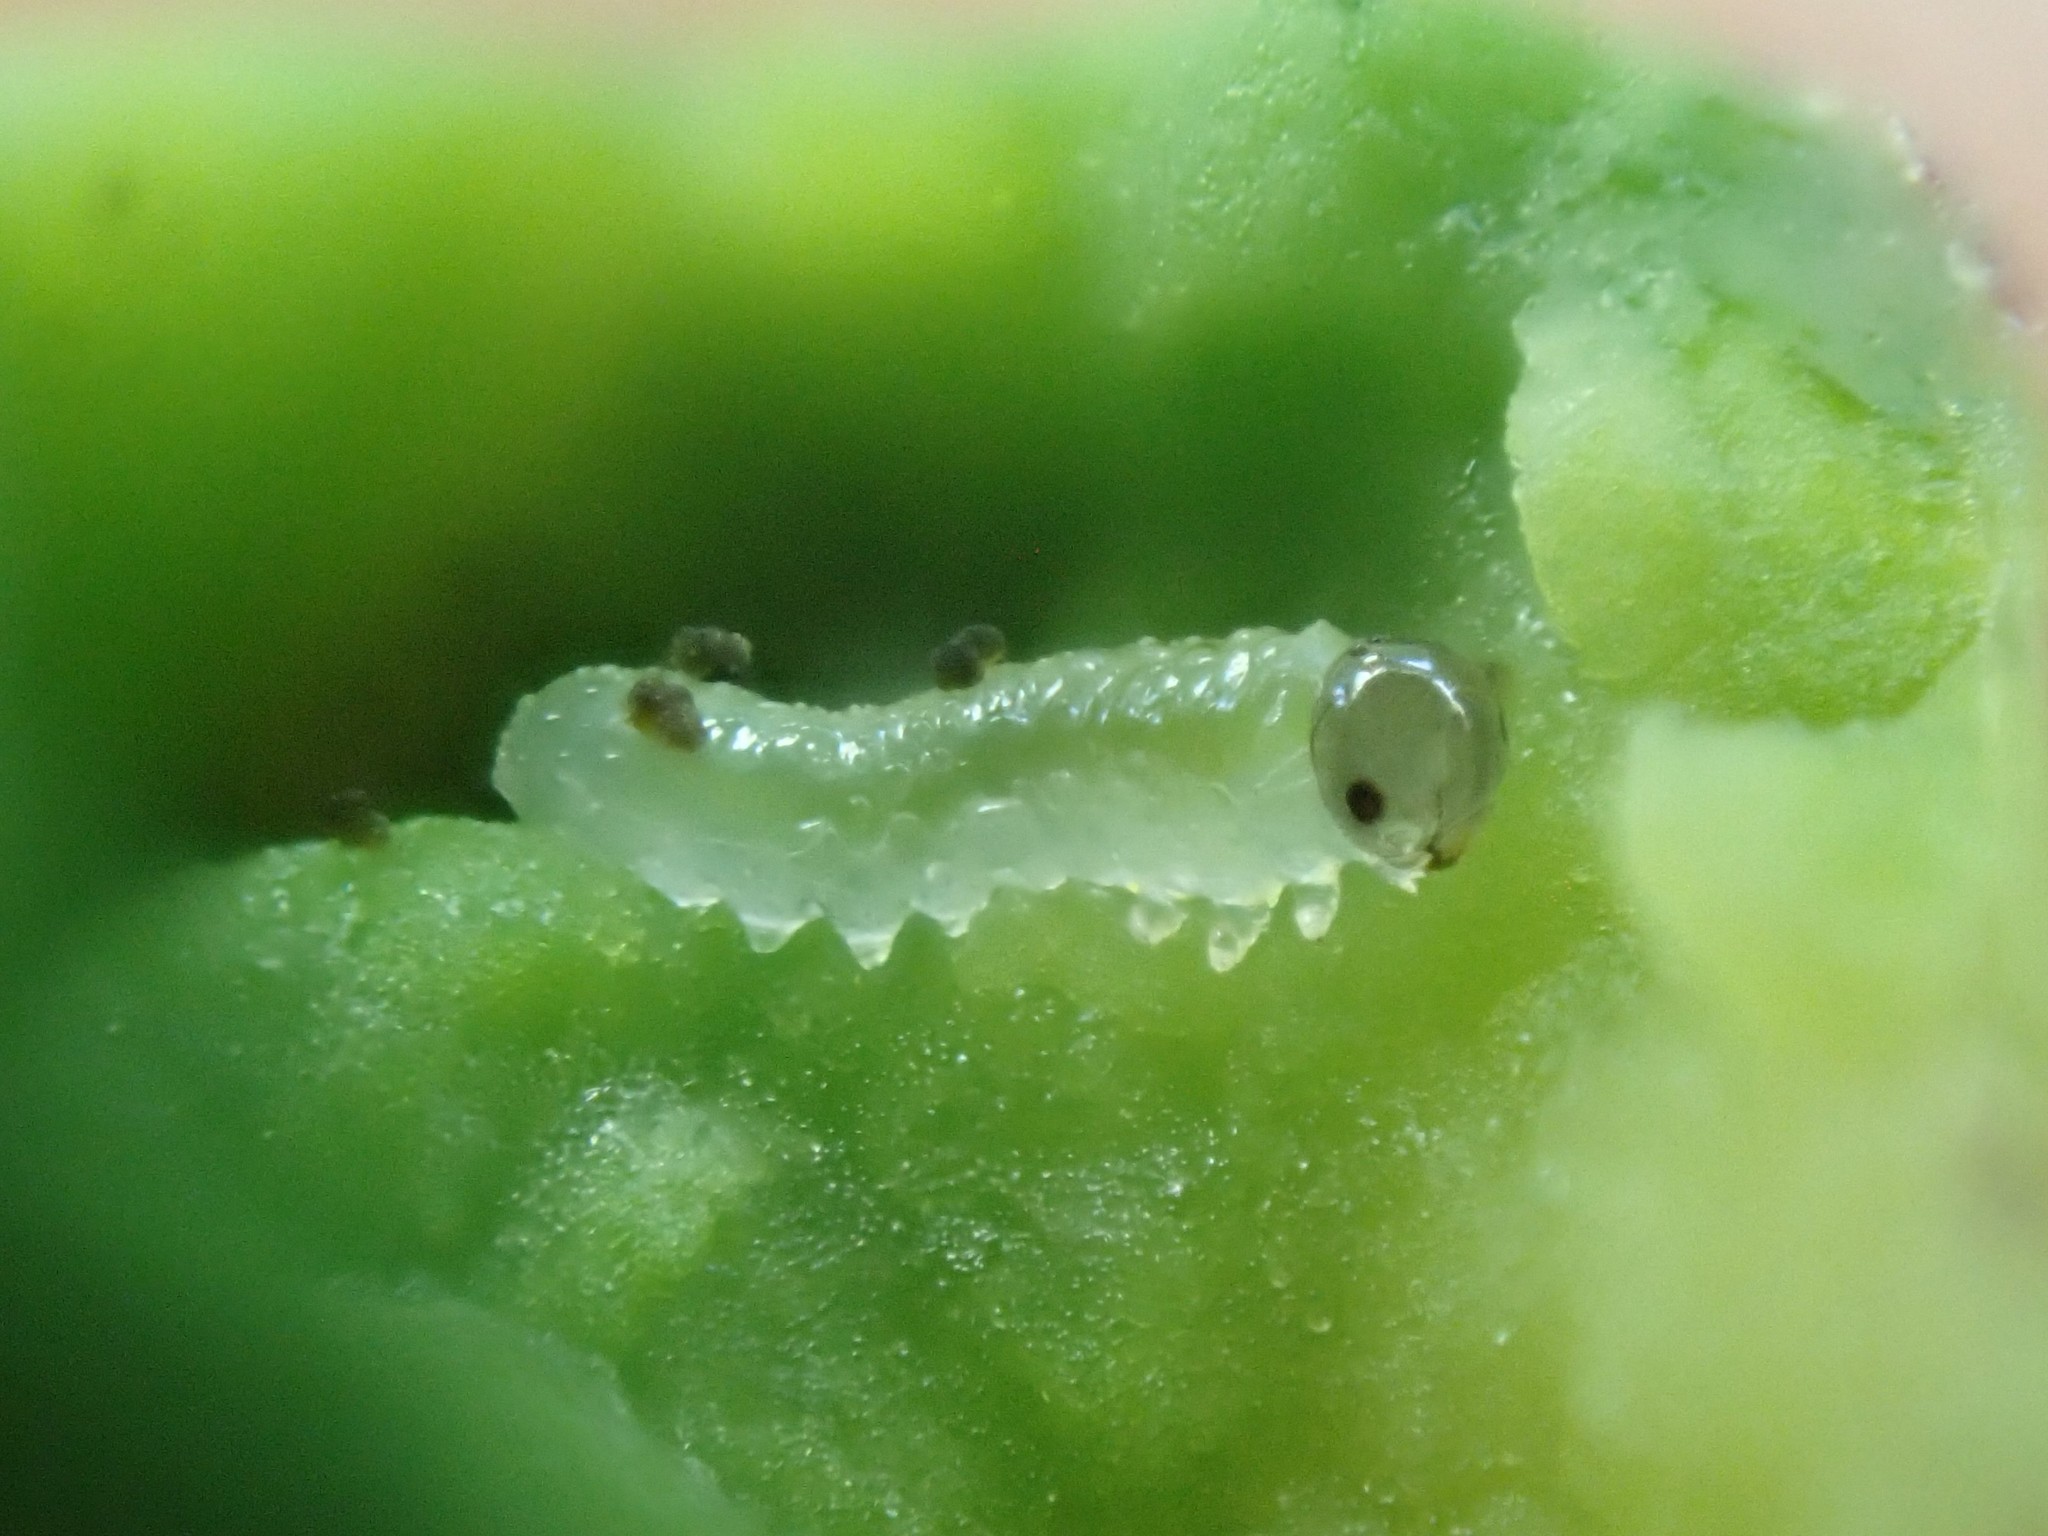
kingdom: Animalia
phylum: Arthropoda
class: Insecta
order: Hymenoptera
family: Tenthredinidae
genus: Blennogeneris
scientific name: Blennogeneris spissipes
